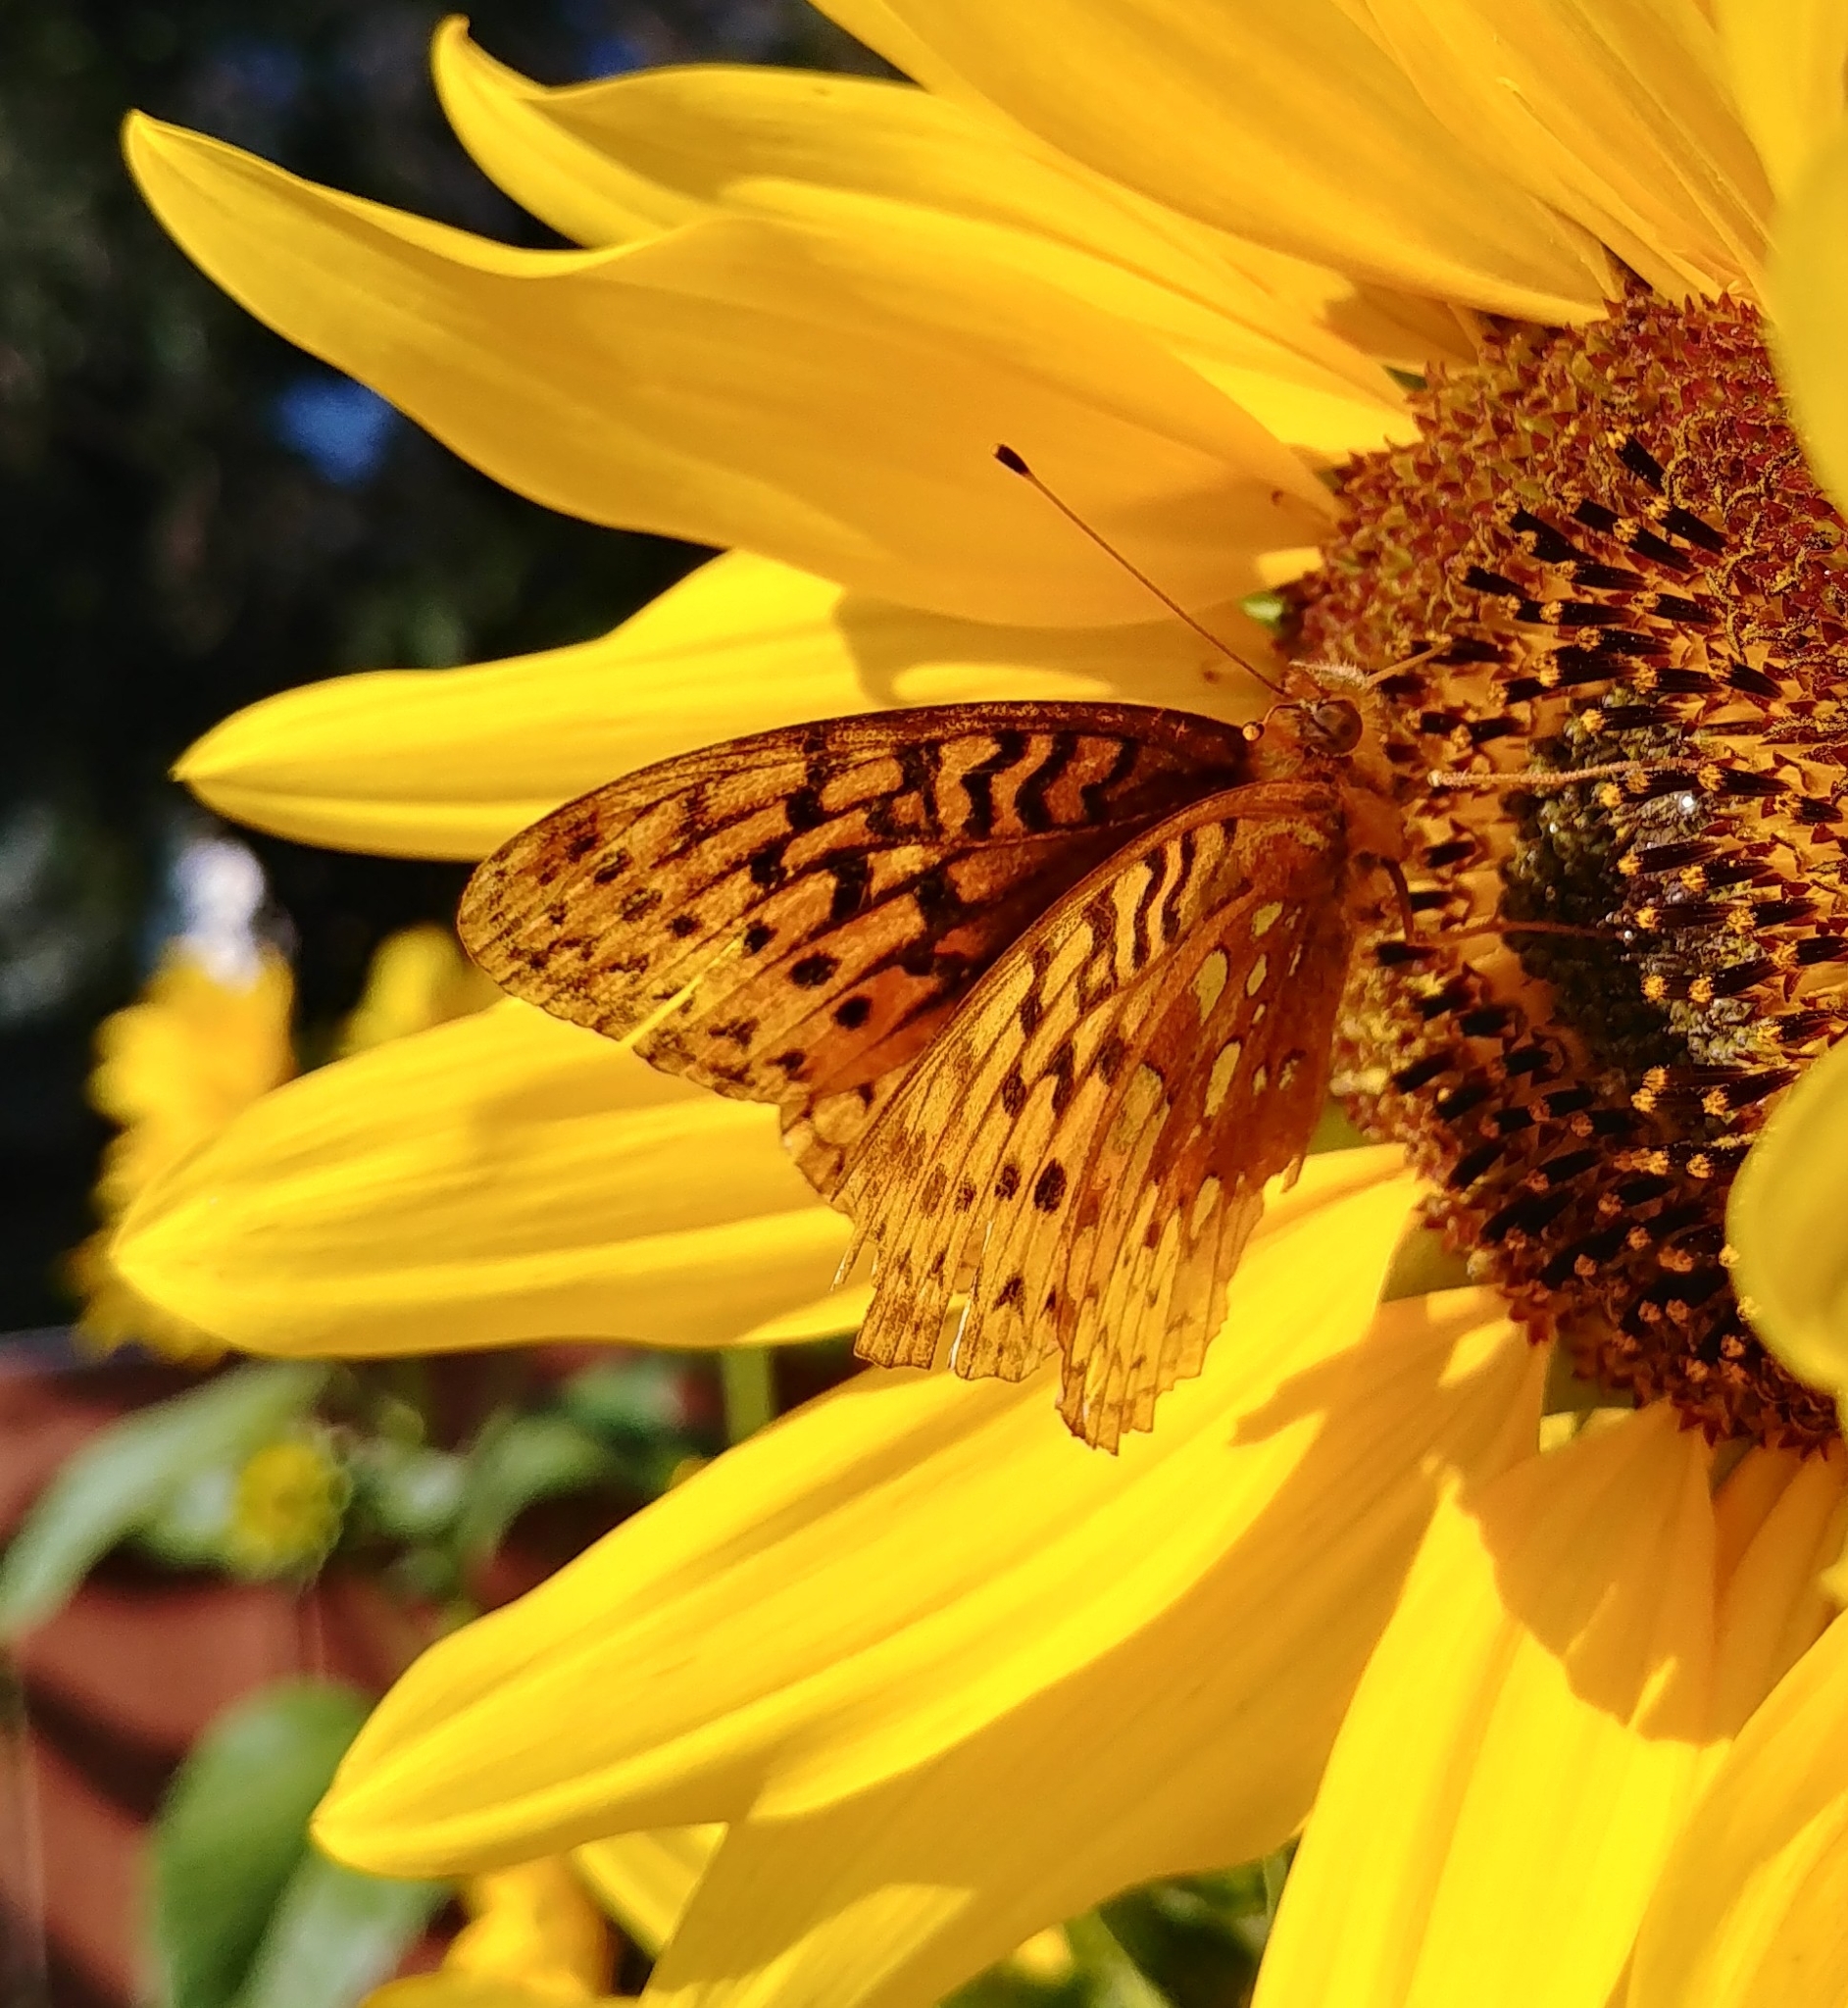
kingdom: Animalia
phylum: Arthropoda
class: Insecta
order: Lepidoptera
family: Nymphalidae
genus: Speyeria
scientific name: Speyeria cybele
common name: Great spangled fritillary
